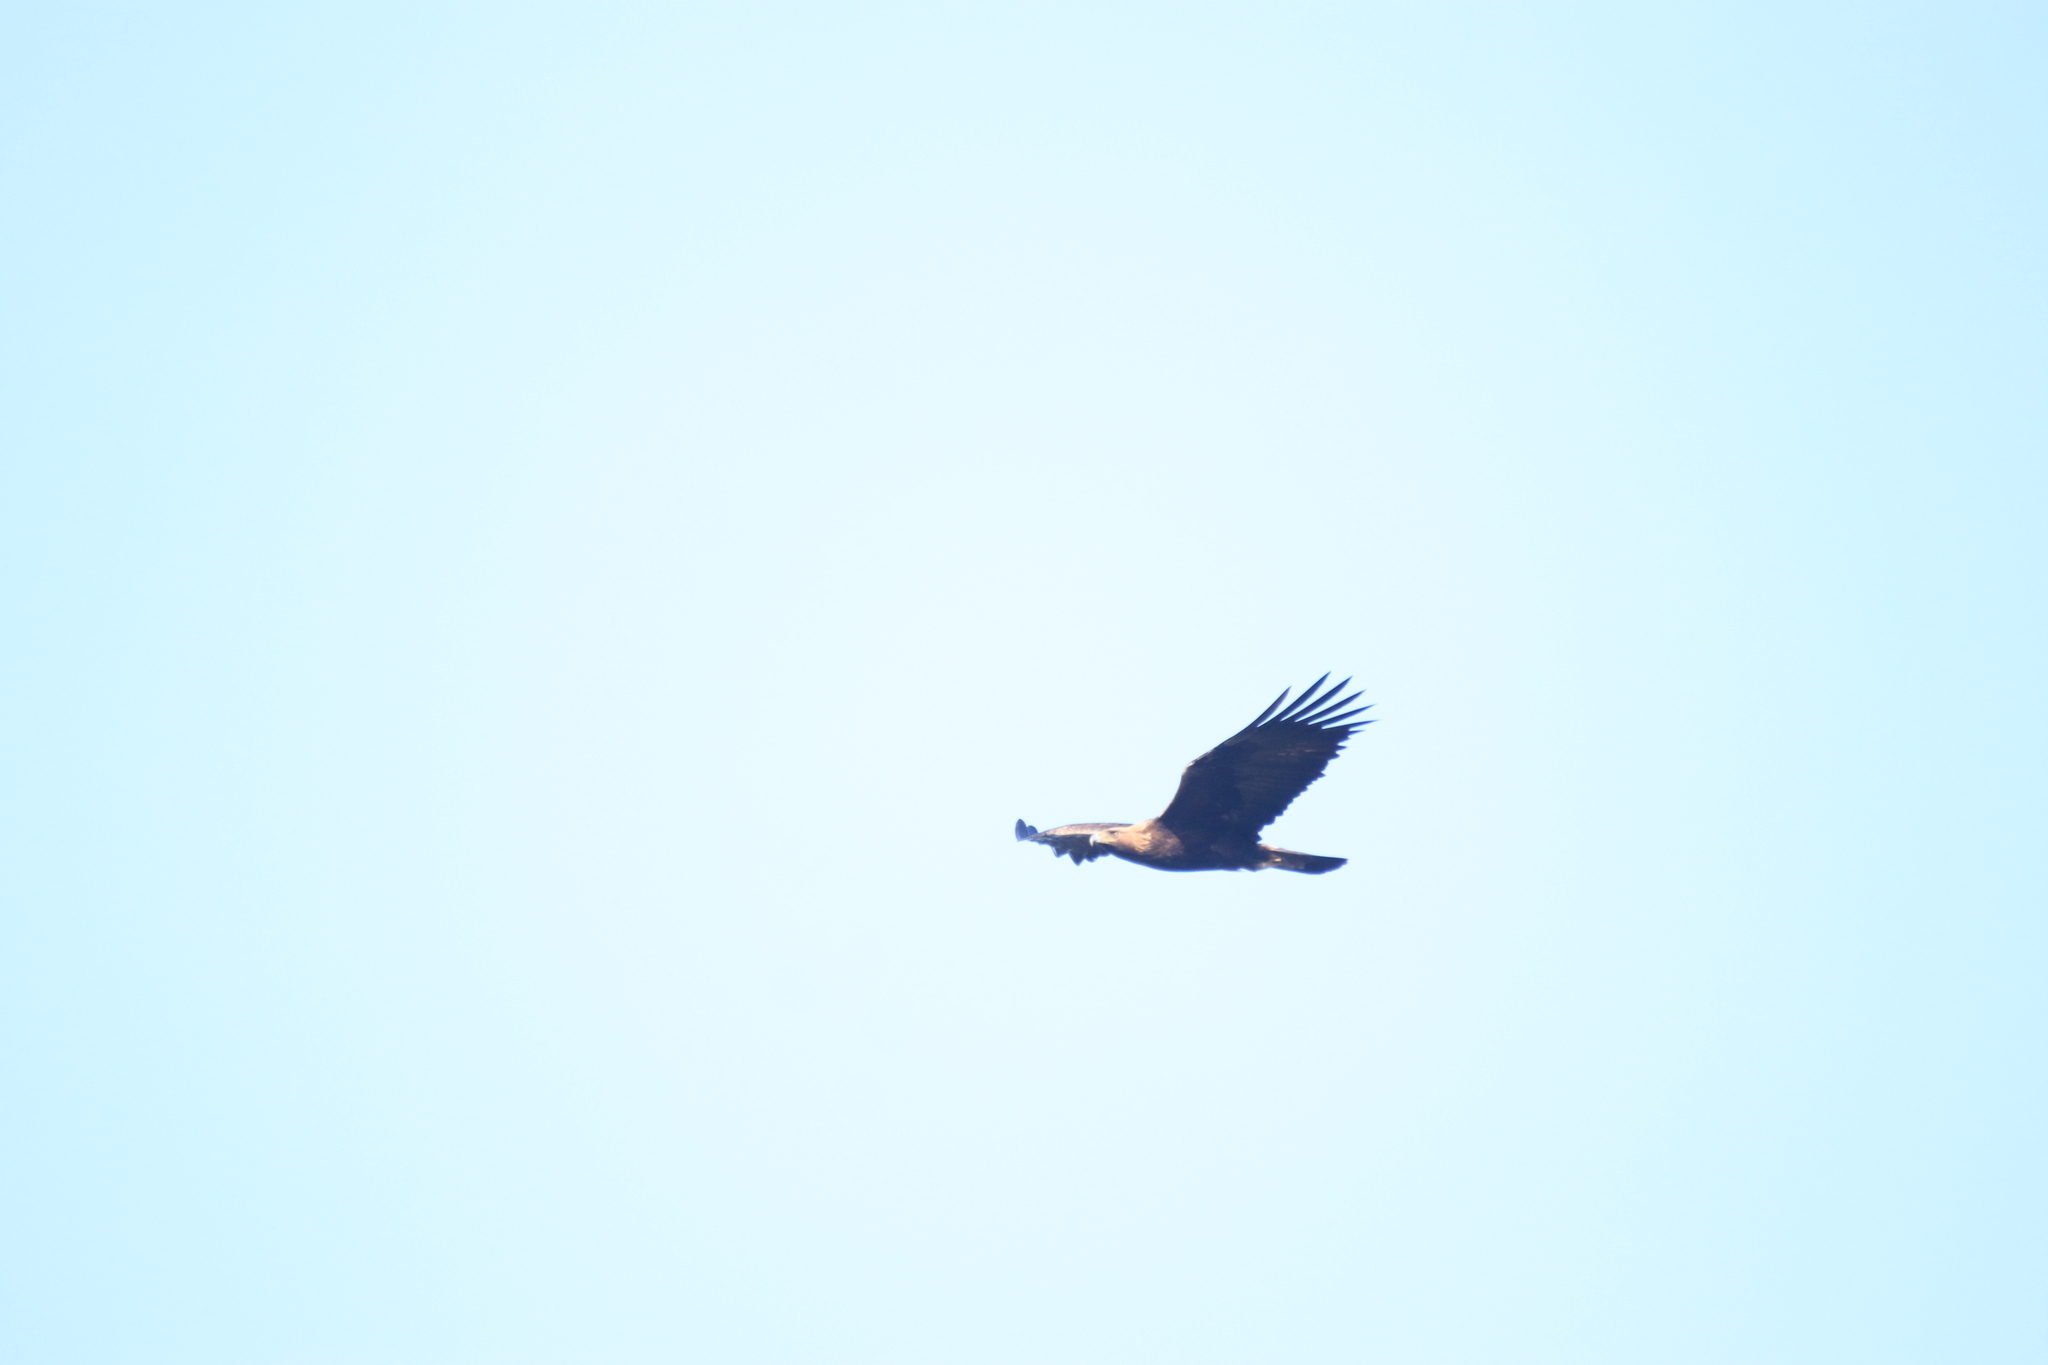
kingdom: Animalia
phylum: Chordata
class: Aves
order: Accipitriformes
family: Accipitridae
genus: Aquila
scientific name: Aquila chrysaetos
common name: Golden eagle
